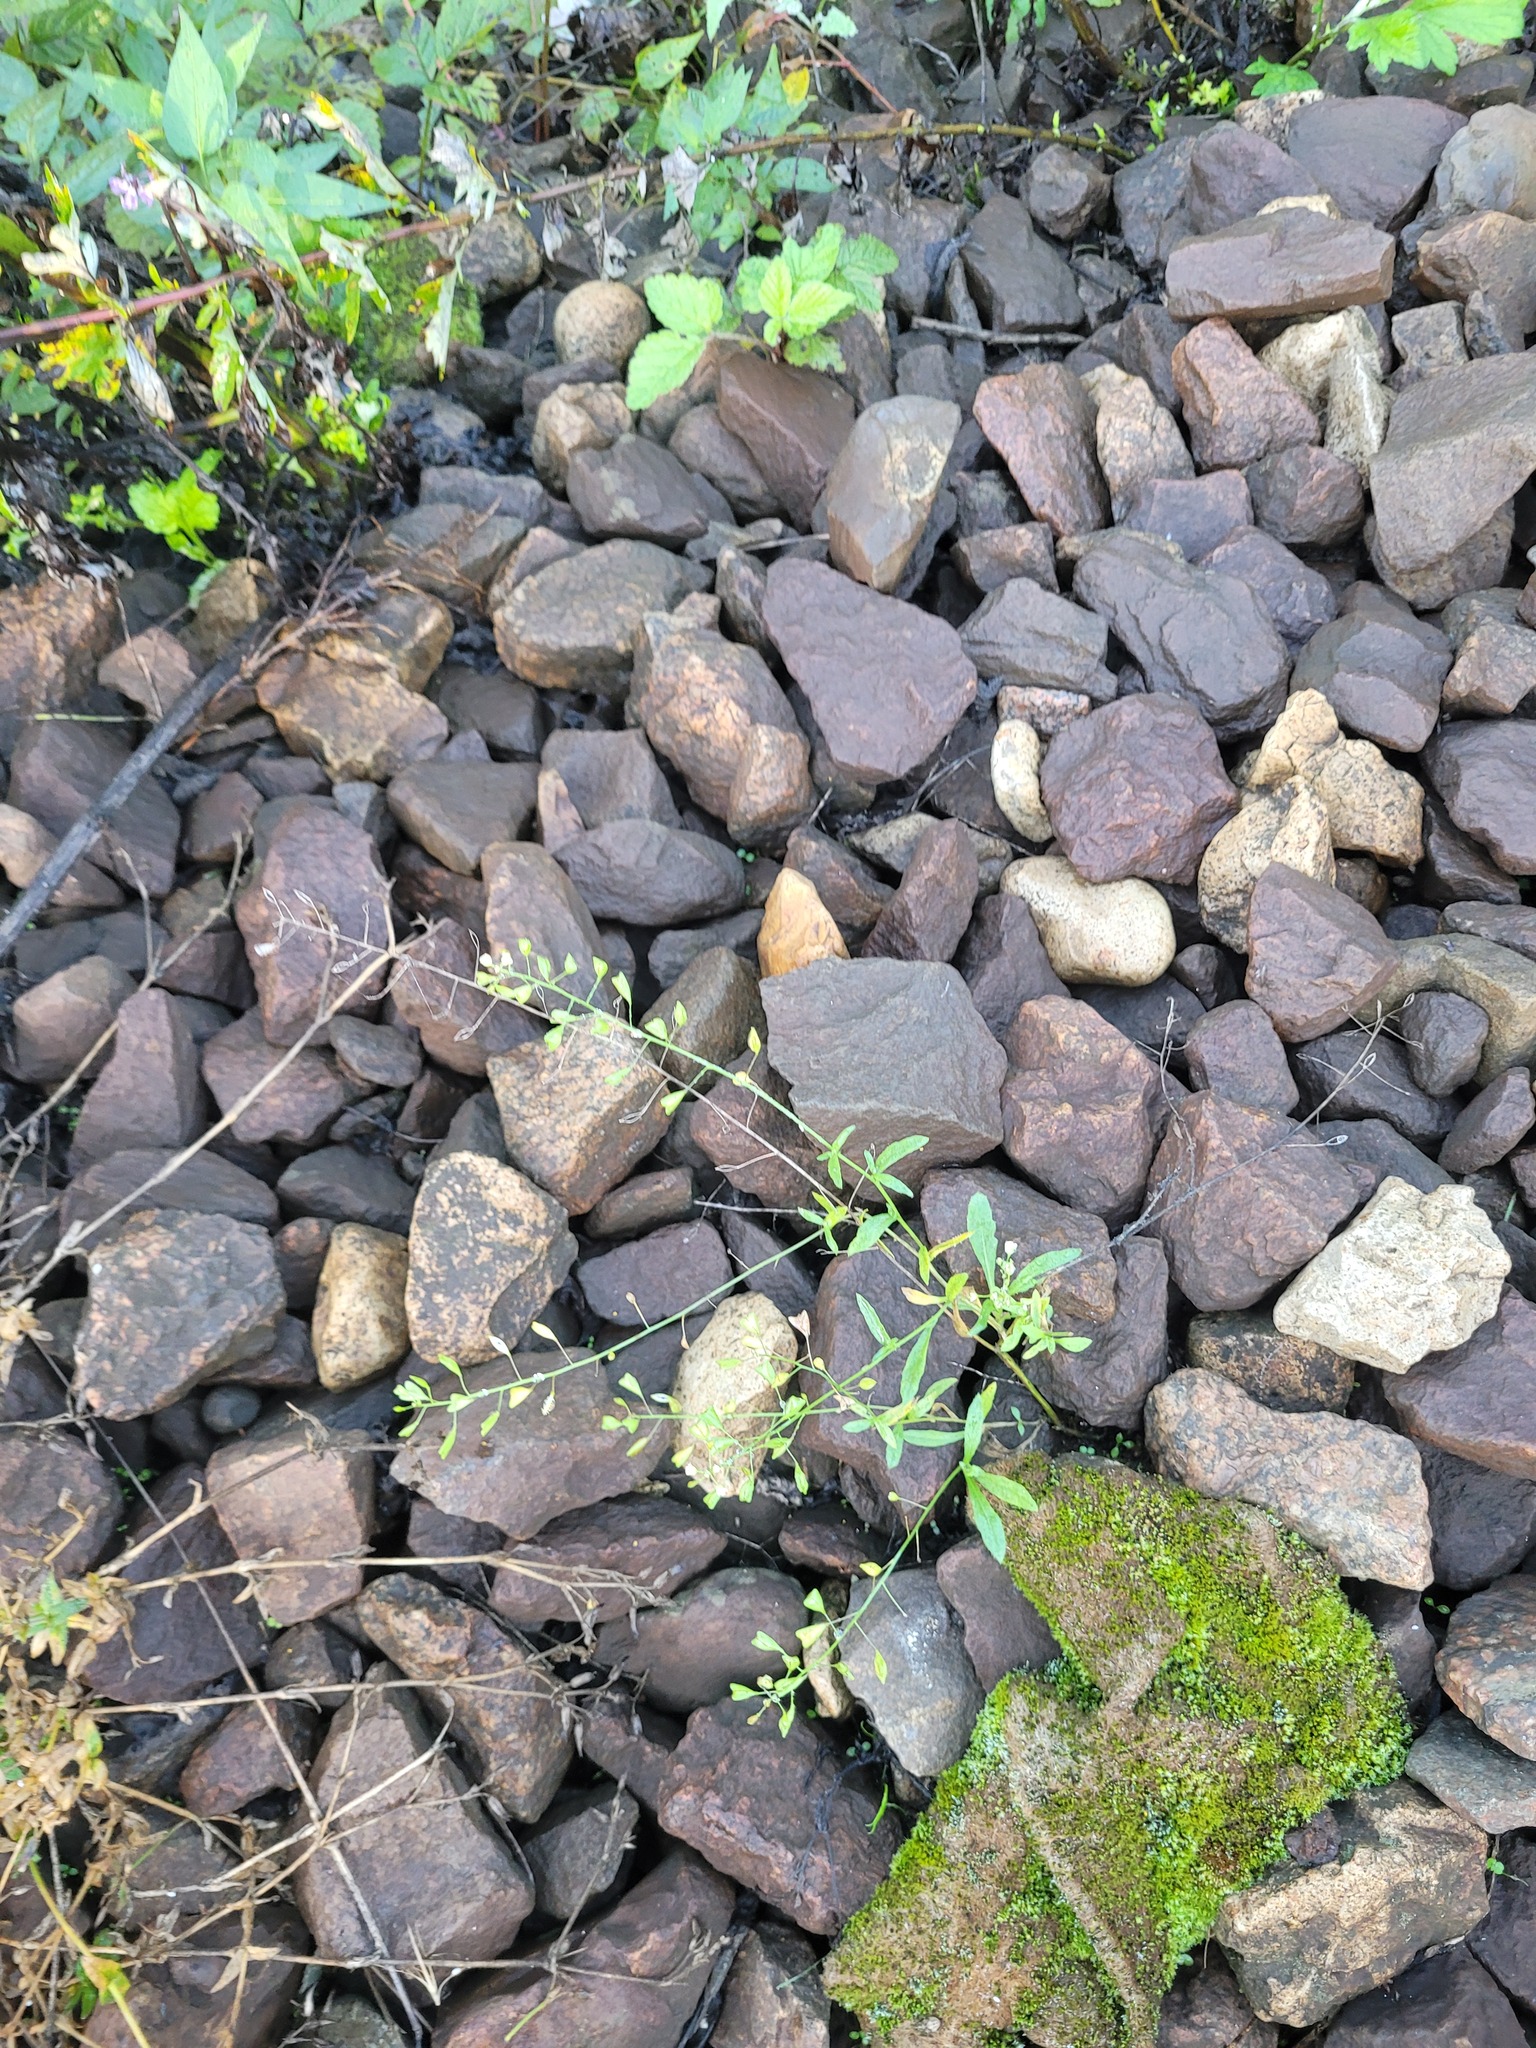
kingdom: Plantae
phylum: Tracheophyta
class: Magnoliopsida
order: Brassicales
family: Brassicaceae
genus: Capsella
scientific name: Capsella bursa-pastoris
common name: Shepherd's purse
